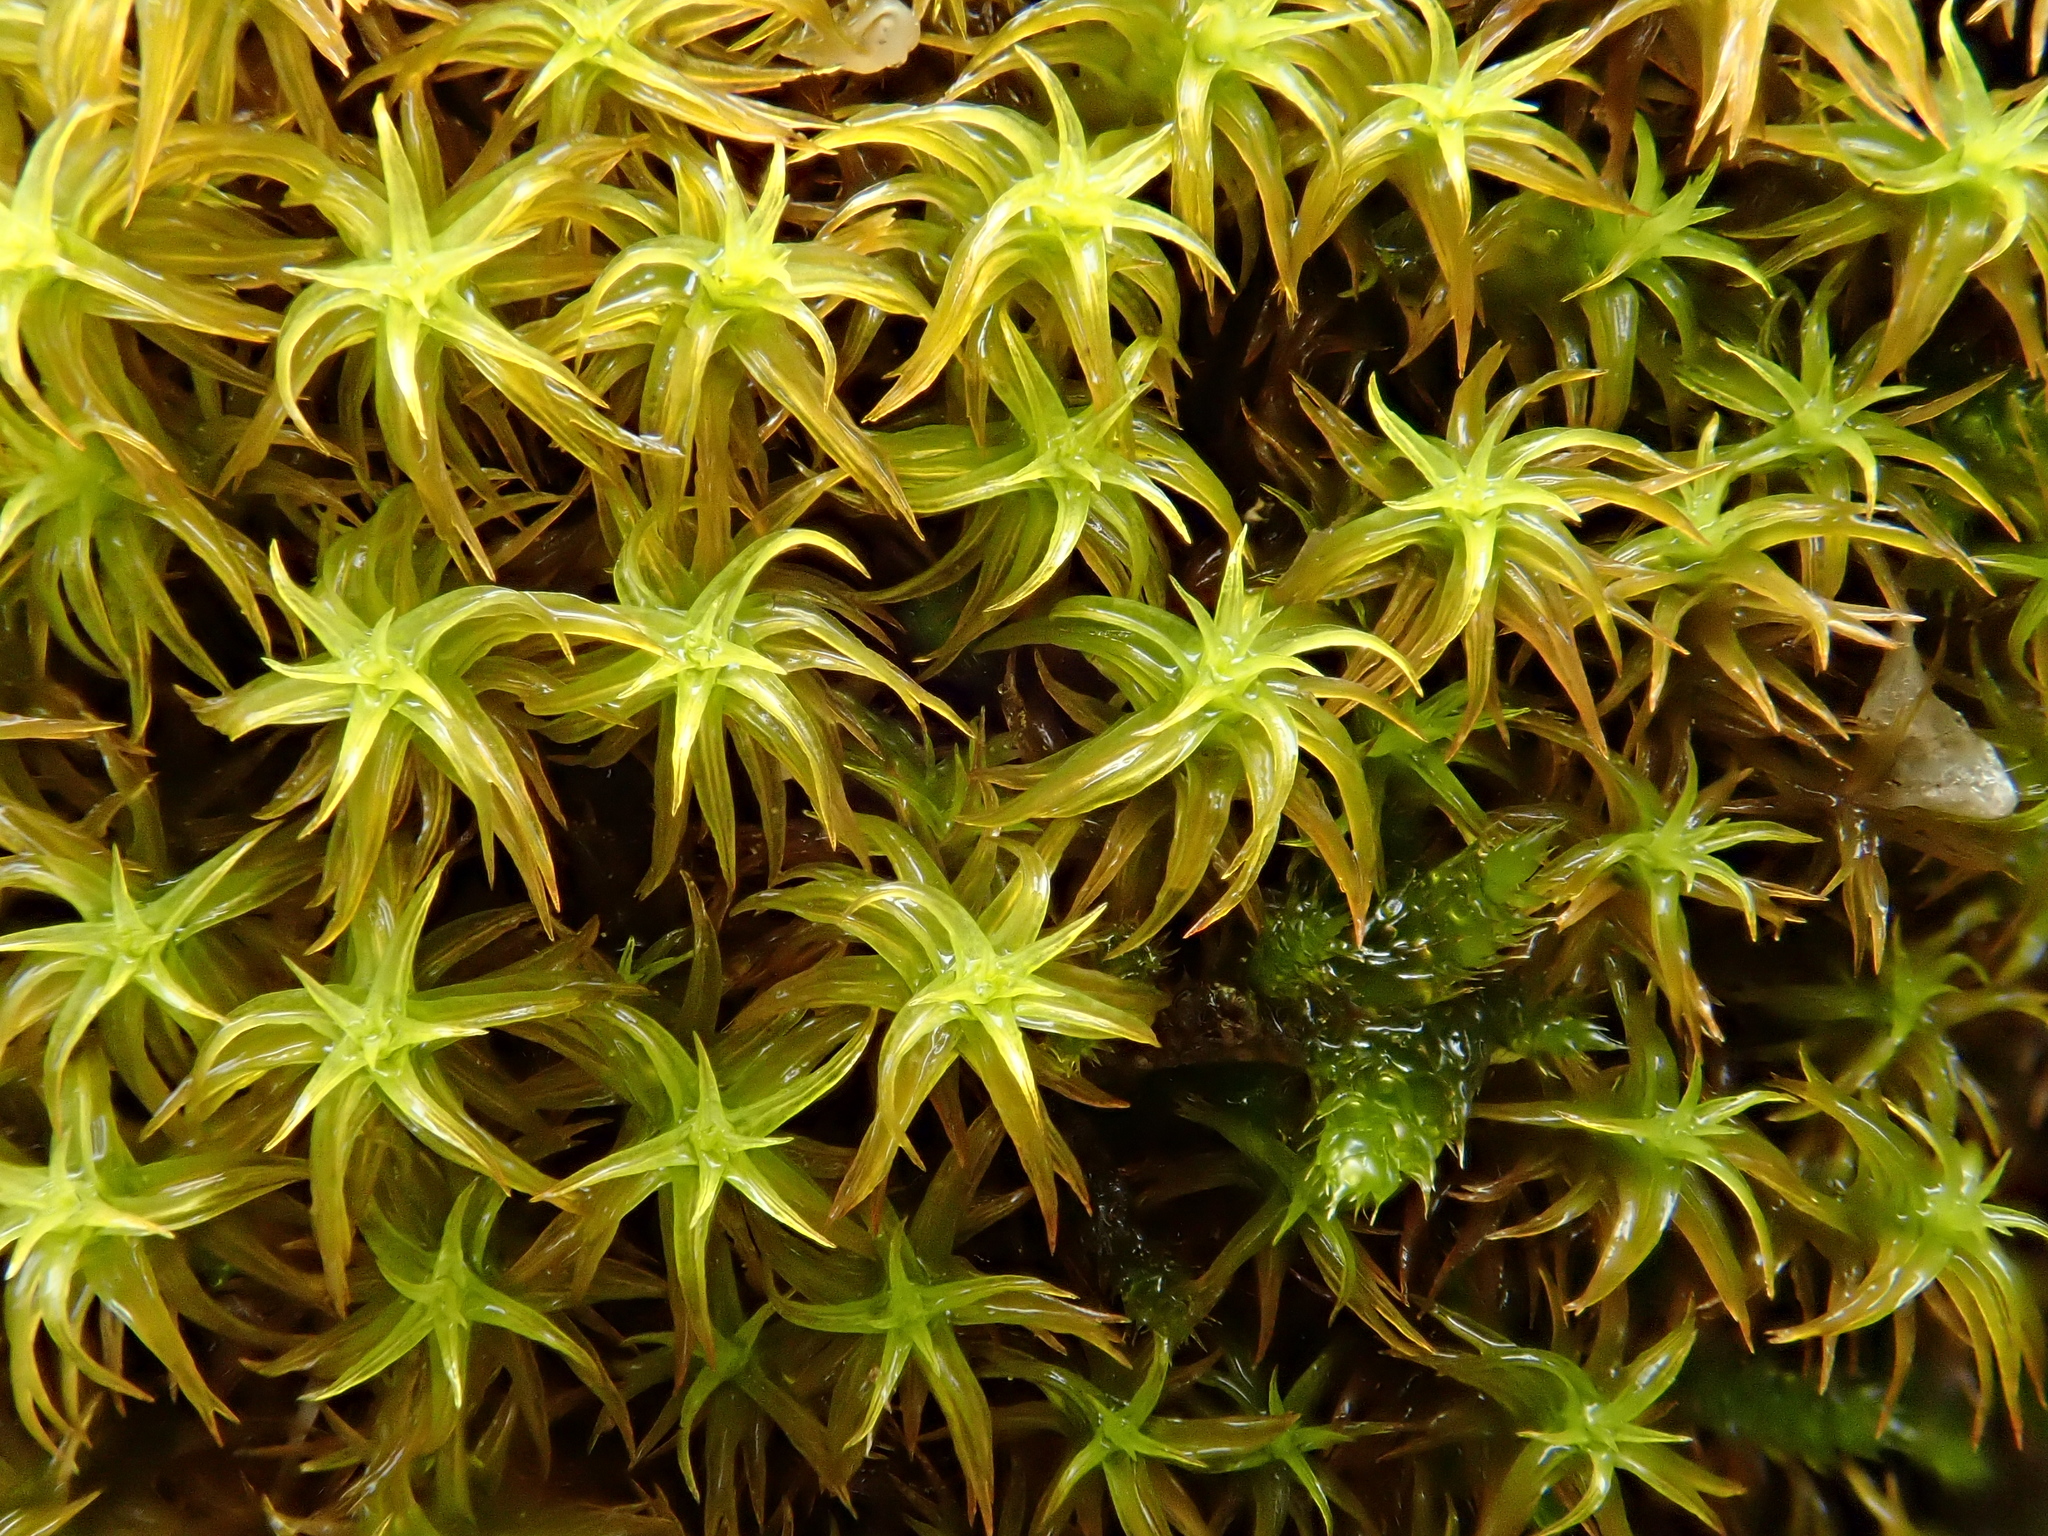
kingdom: Plantae
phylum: Bryophyta
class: Bryopsida
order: Pottiales
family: Pottiaceae
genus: Pleurochaete
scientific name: Pleurochaete squarrosa
